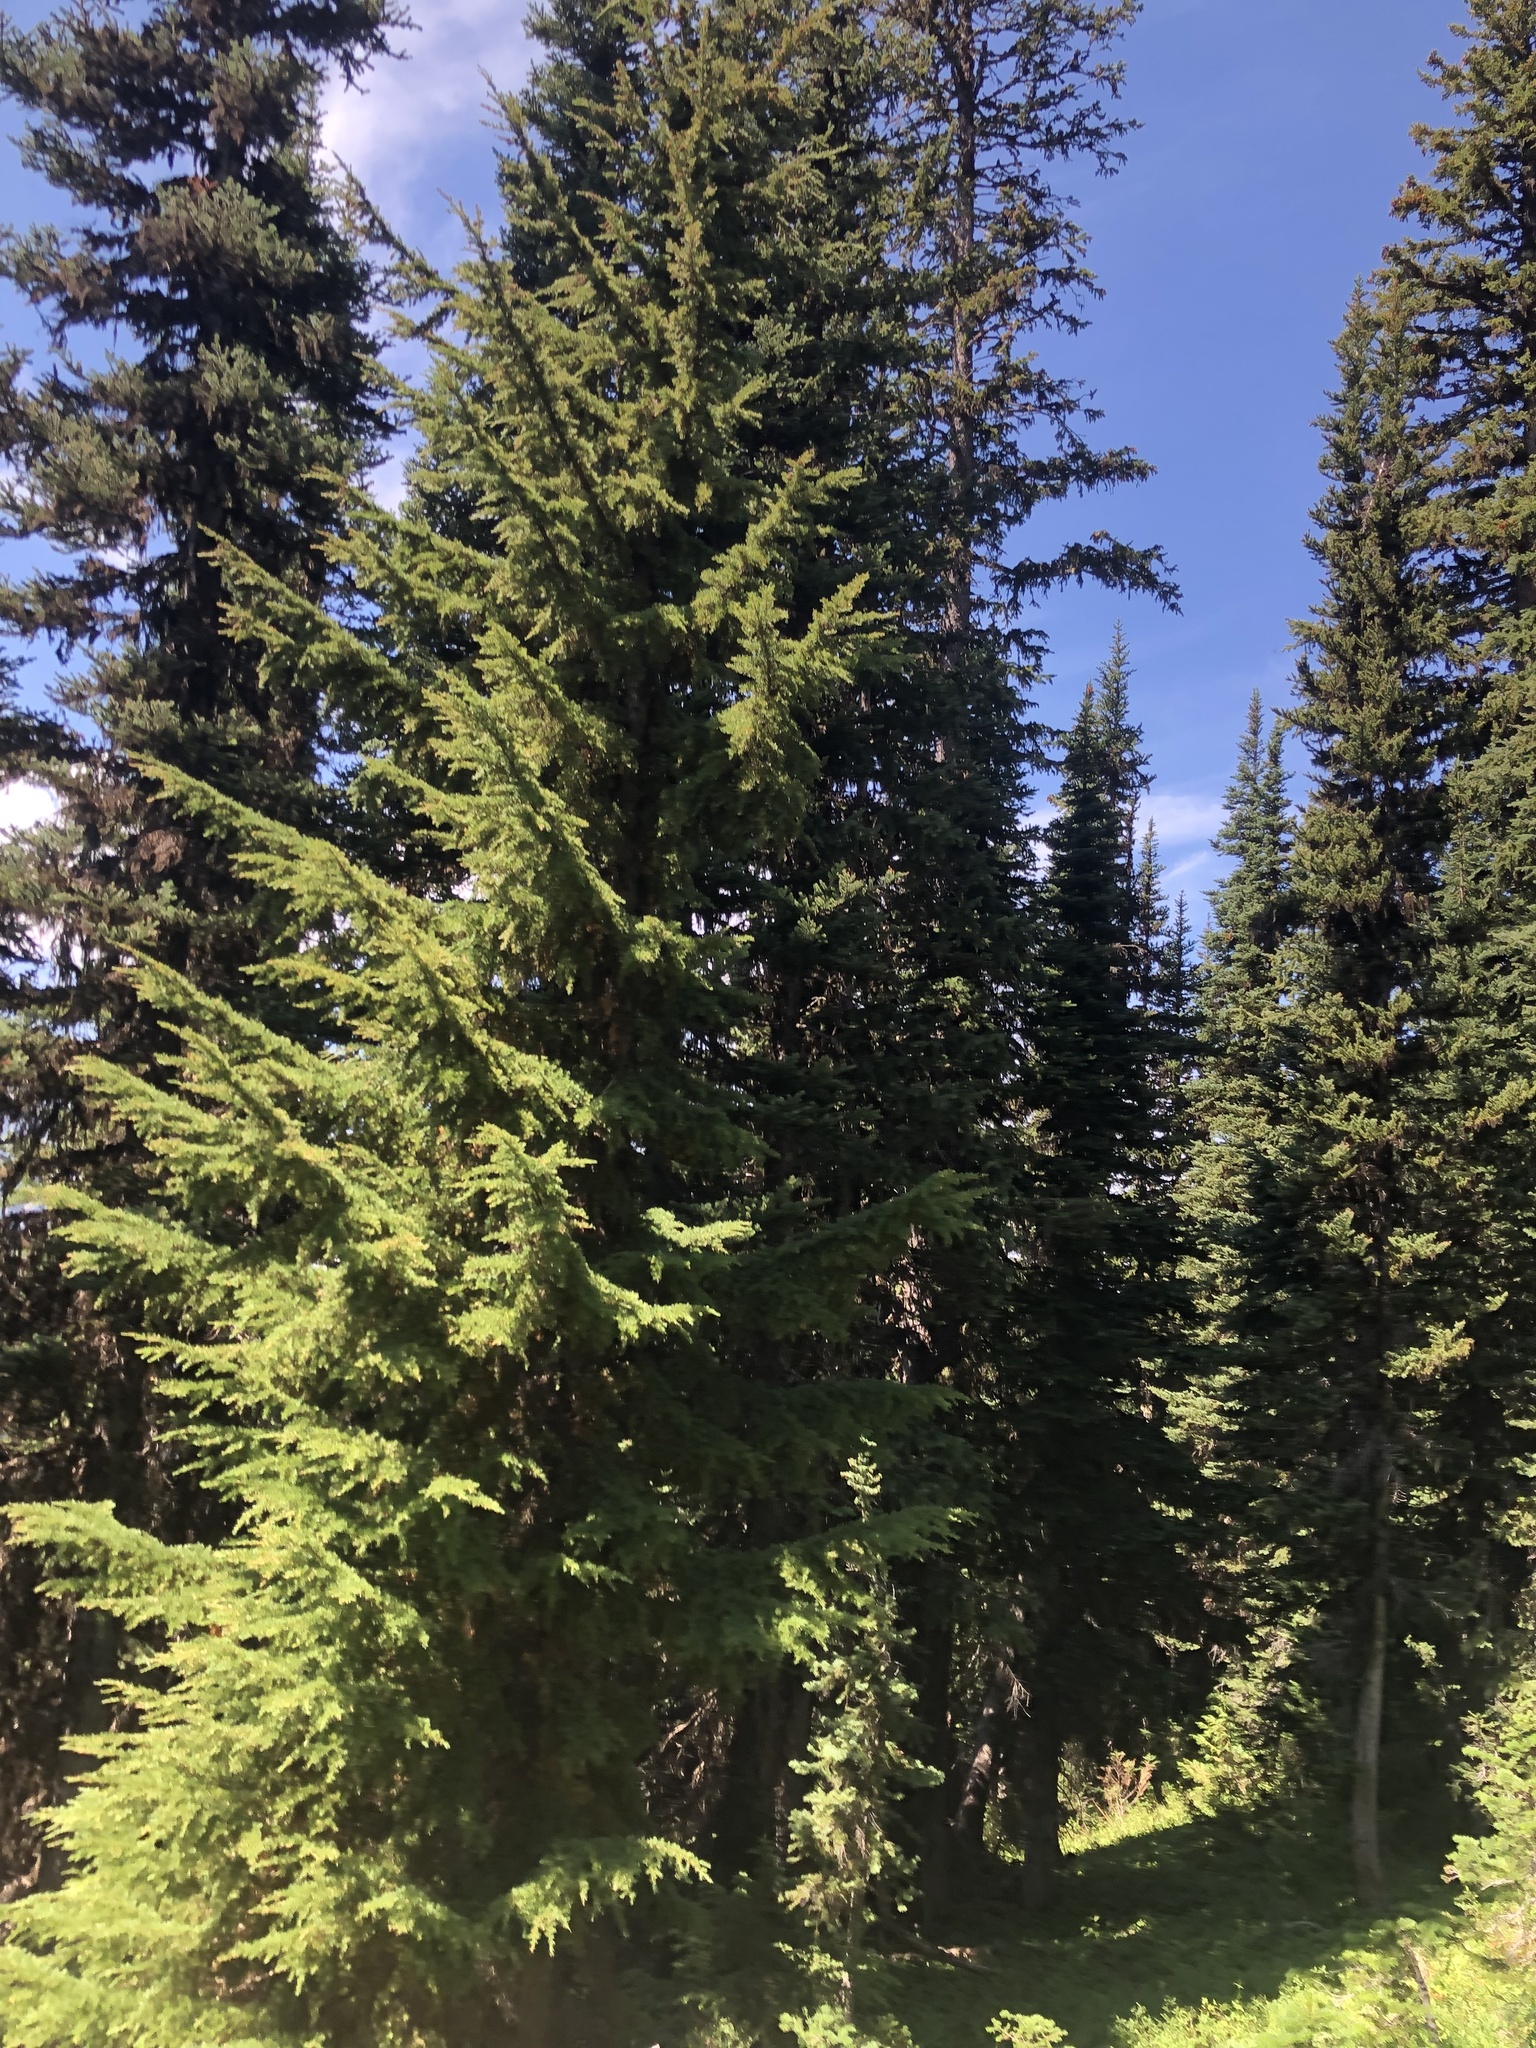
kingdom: Plantae
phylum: Tracheophyta
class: Pinopsida
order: Pinales
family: Pinaceae
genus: Tsuga
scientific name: Tsuga mertensiana
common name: Mountain hemlock
